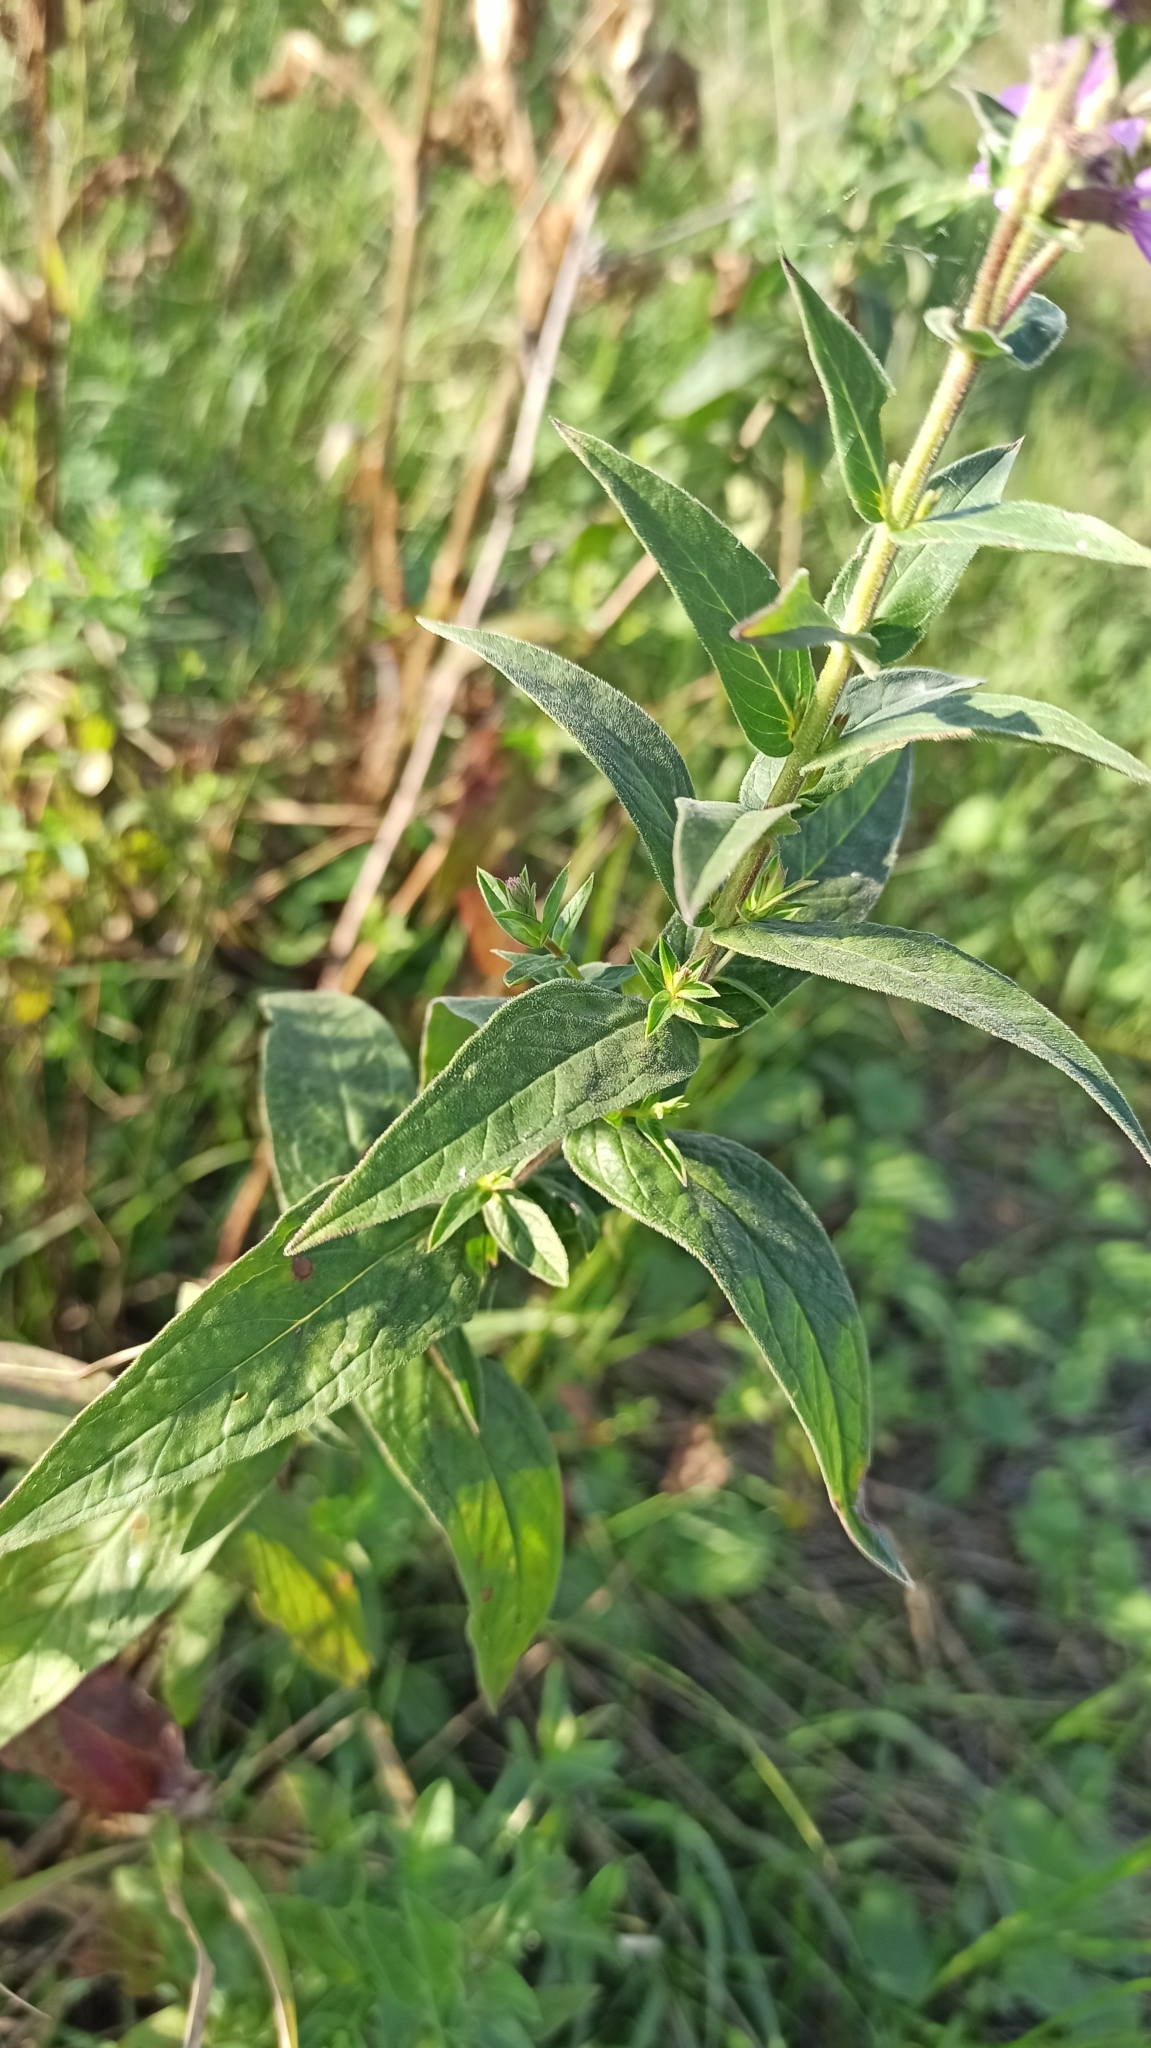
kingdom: Plantae
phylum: Tracheophyta
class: Magnoliopsida
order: Myrtales
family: Lythraceae
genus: Lythrum
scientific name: Lythrum salicaria
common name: Purple loosestrife
